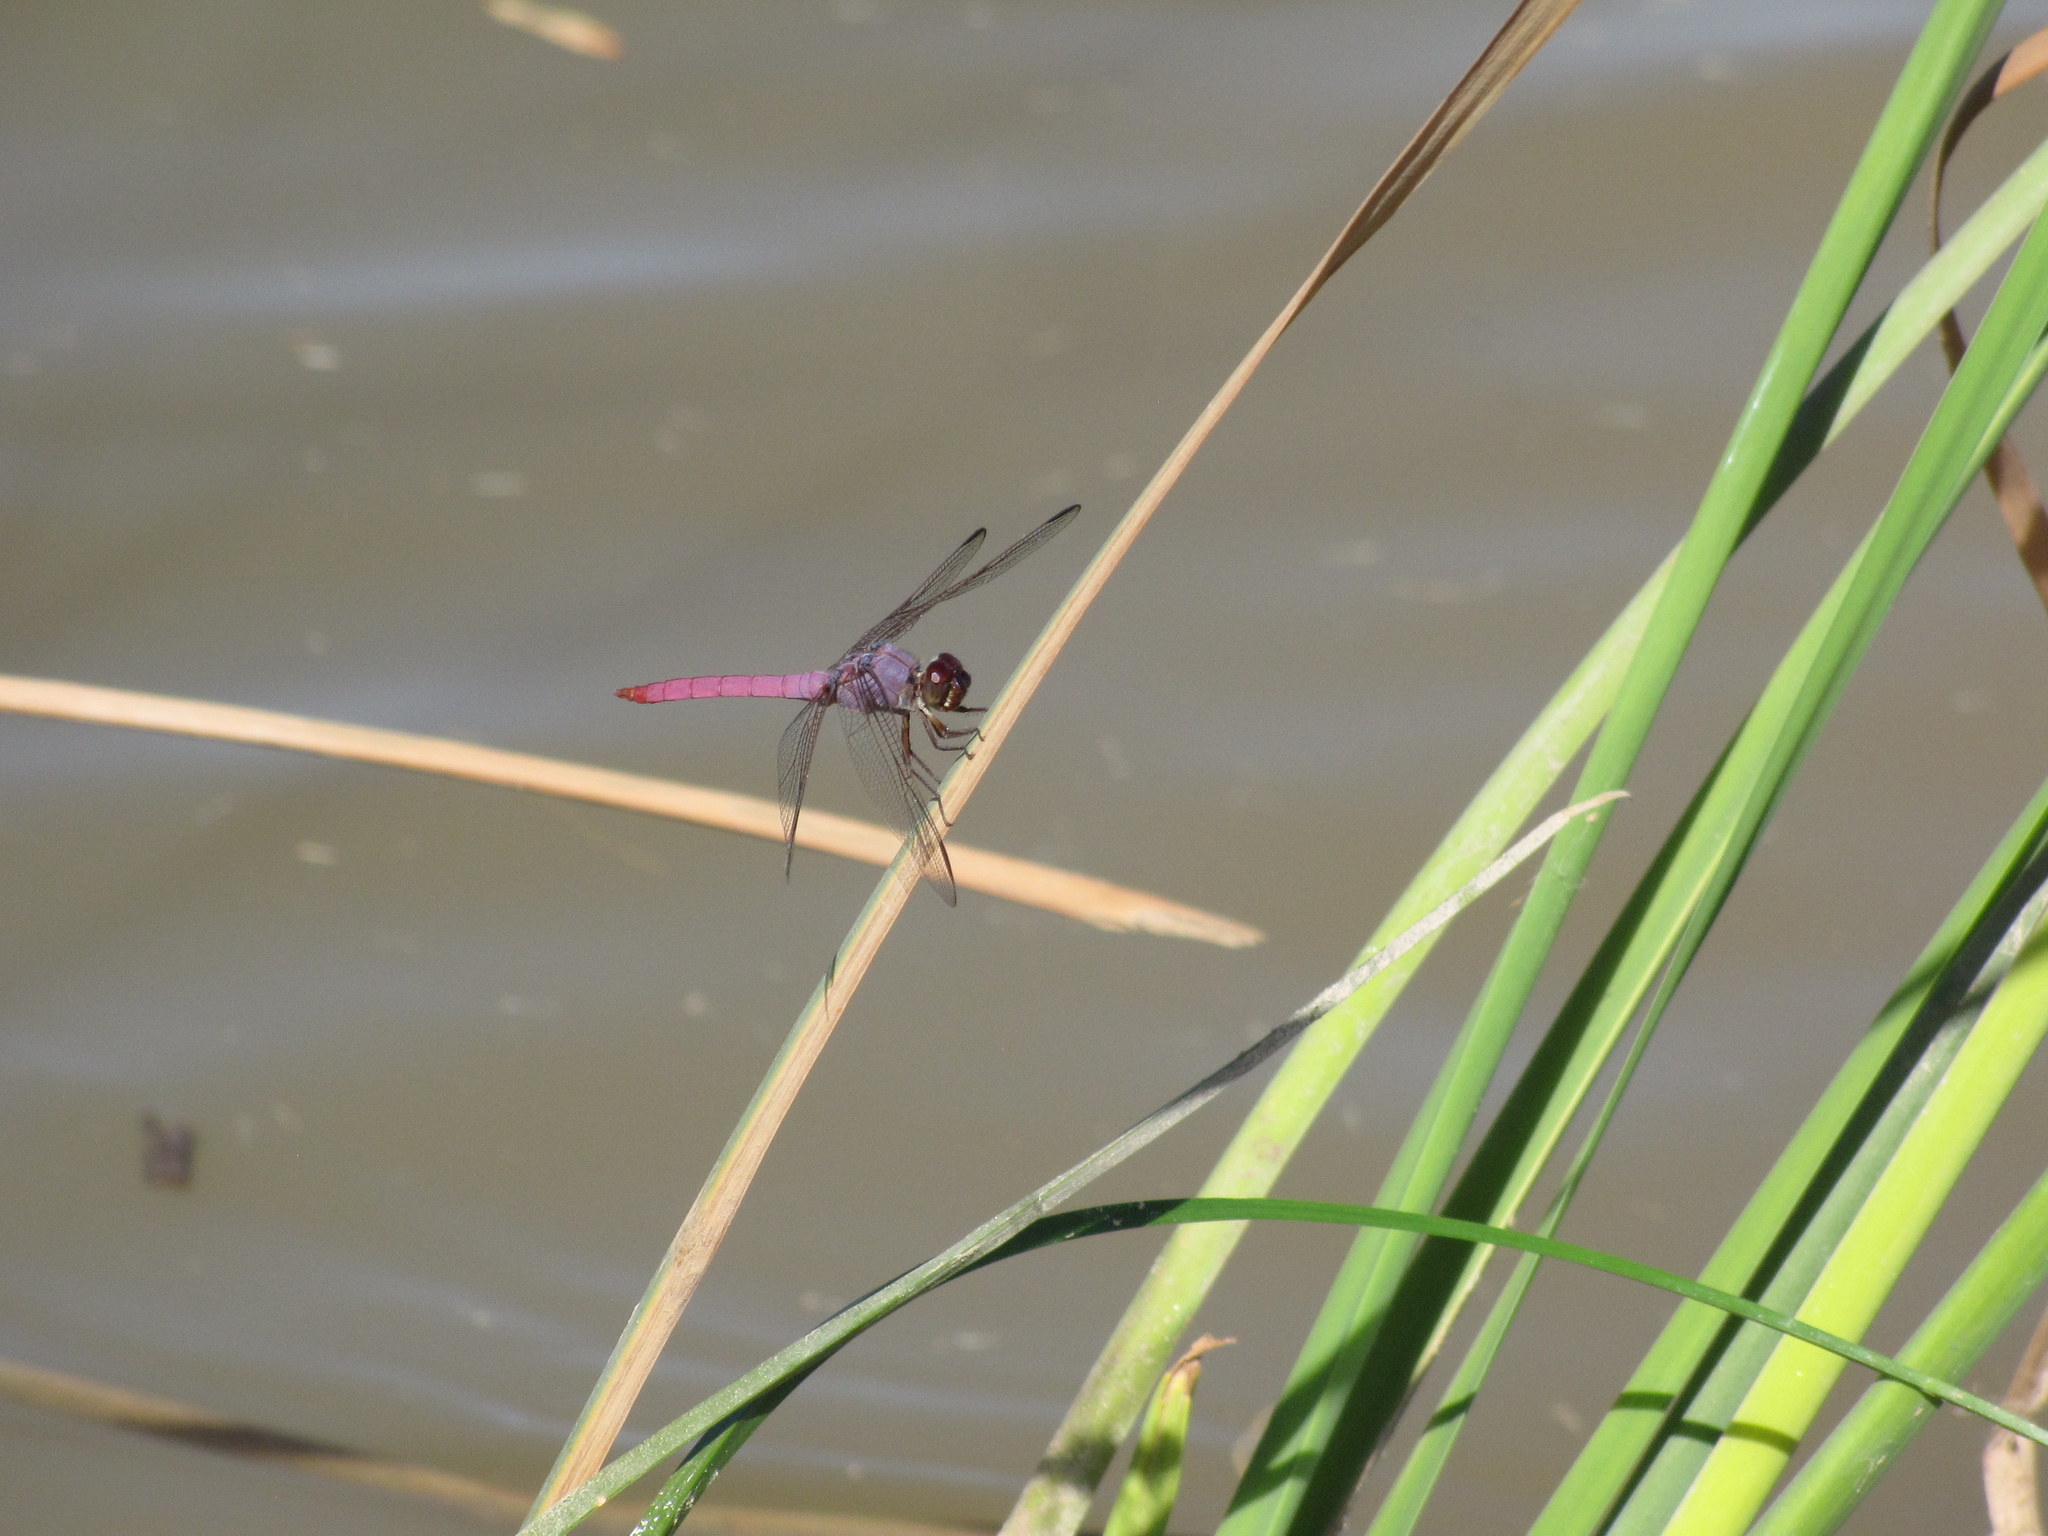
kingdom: Animalia
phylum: Arthropoda
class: Insecta
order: Odonata
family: Libellulidae
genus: Orthemis
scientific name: Orthemis ferruginea
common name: Roseate skimmer
